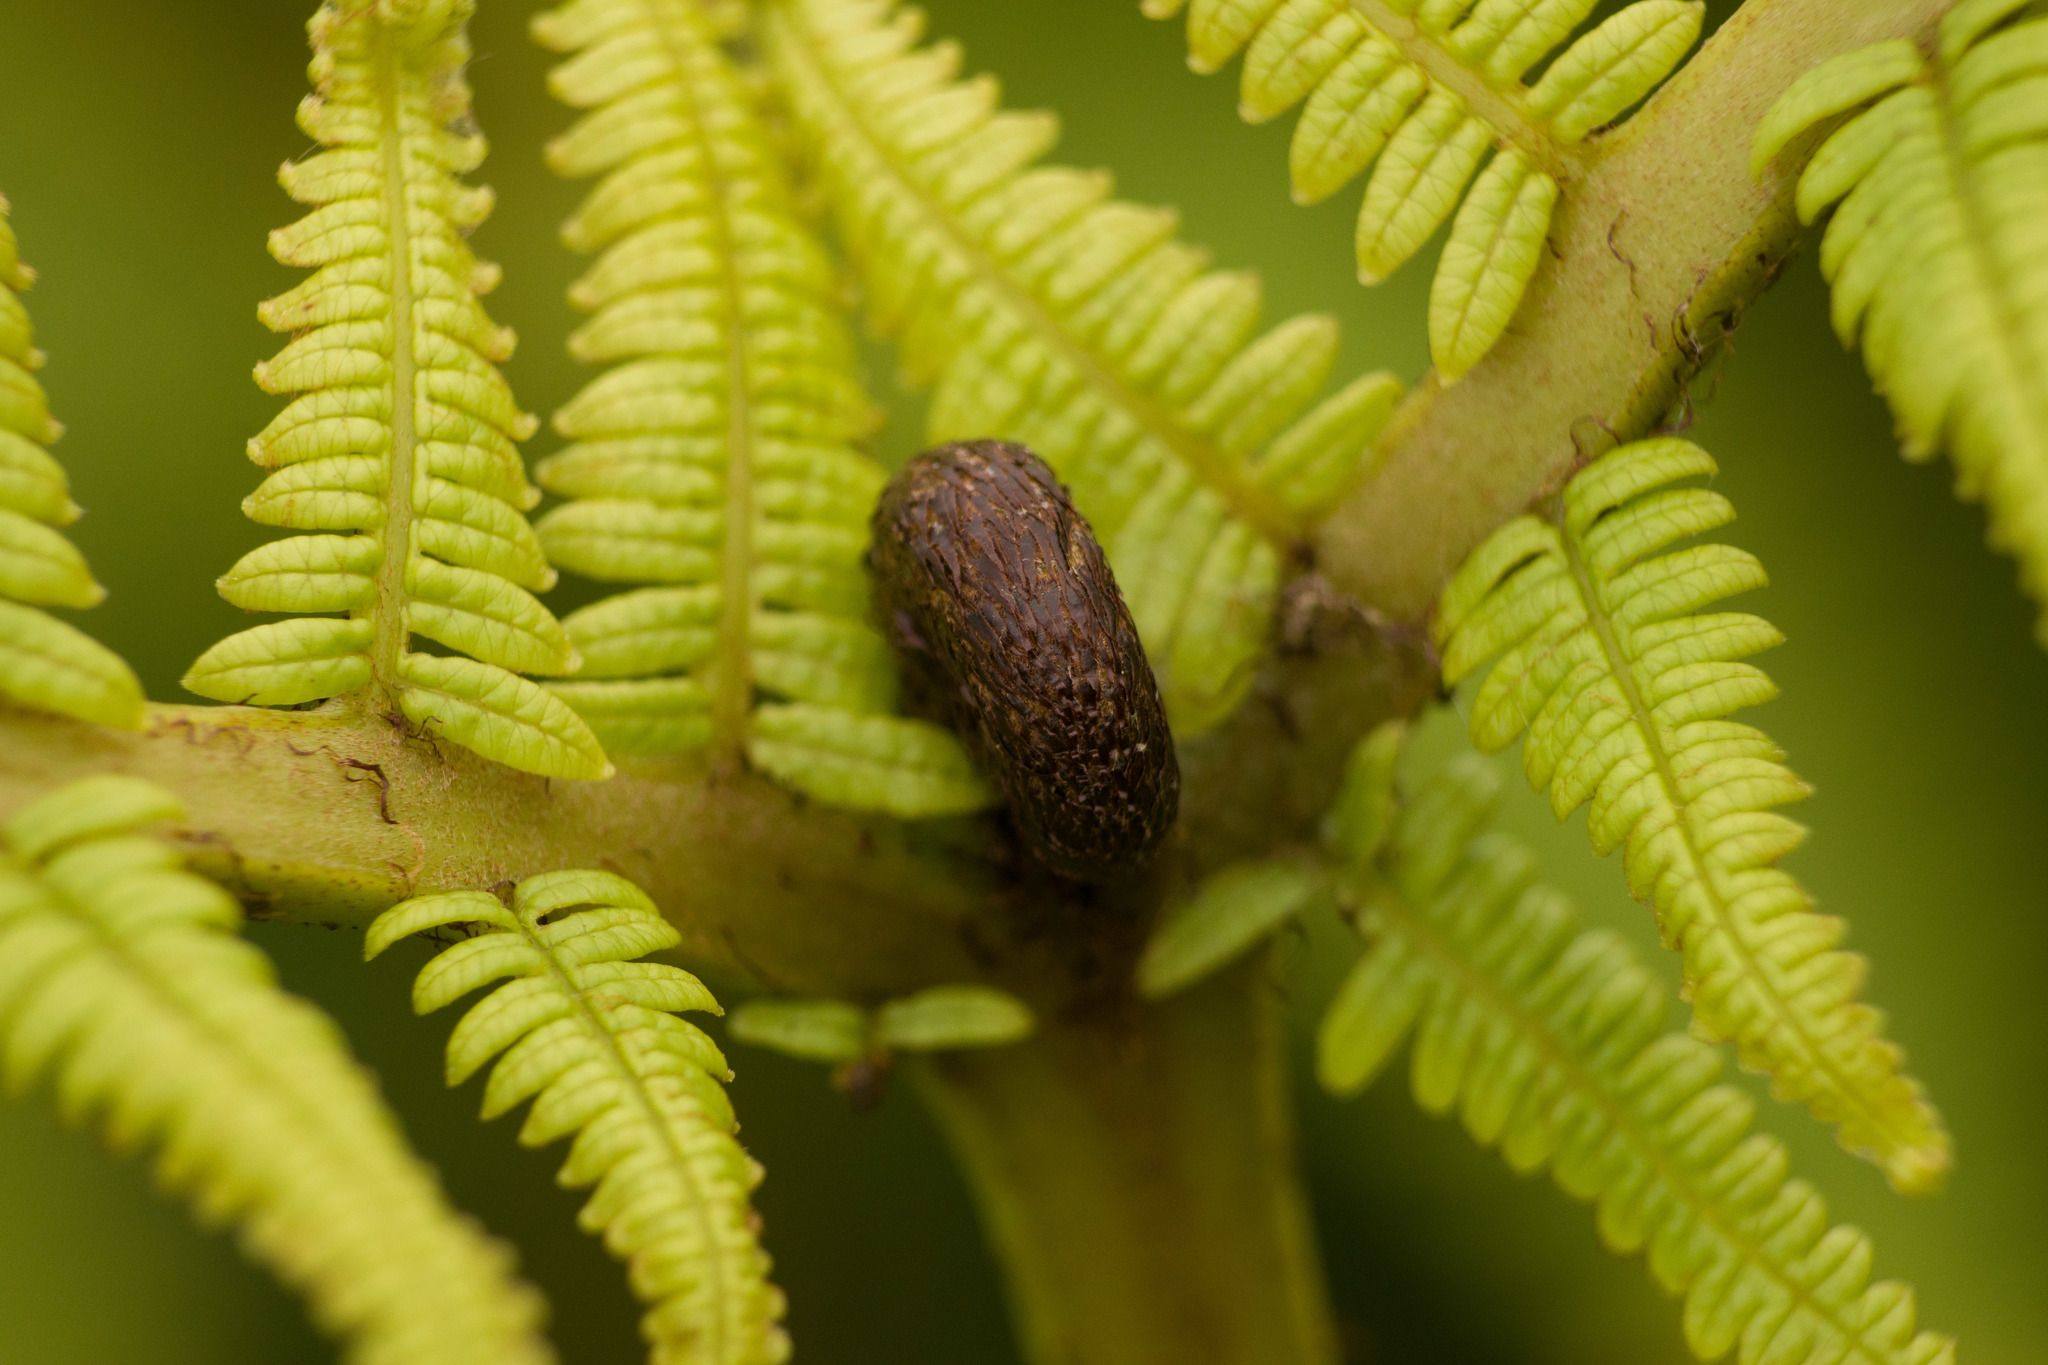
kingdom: Plantae
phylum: Tracheophyta
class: Polypodiopsida
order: Gleicheniales
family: Gleicheniaceae
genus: Diplopterygium
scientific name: Diplopterygium pinnatum
